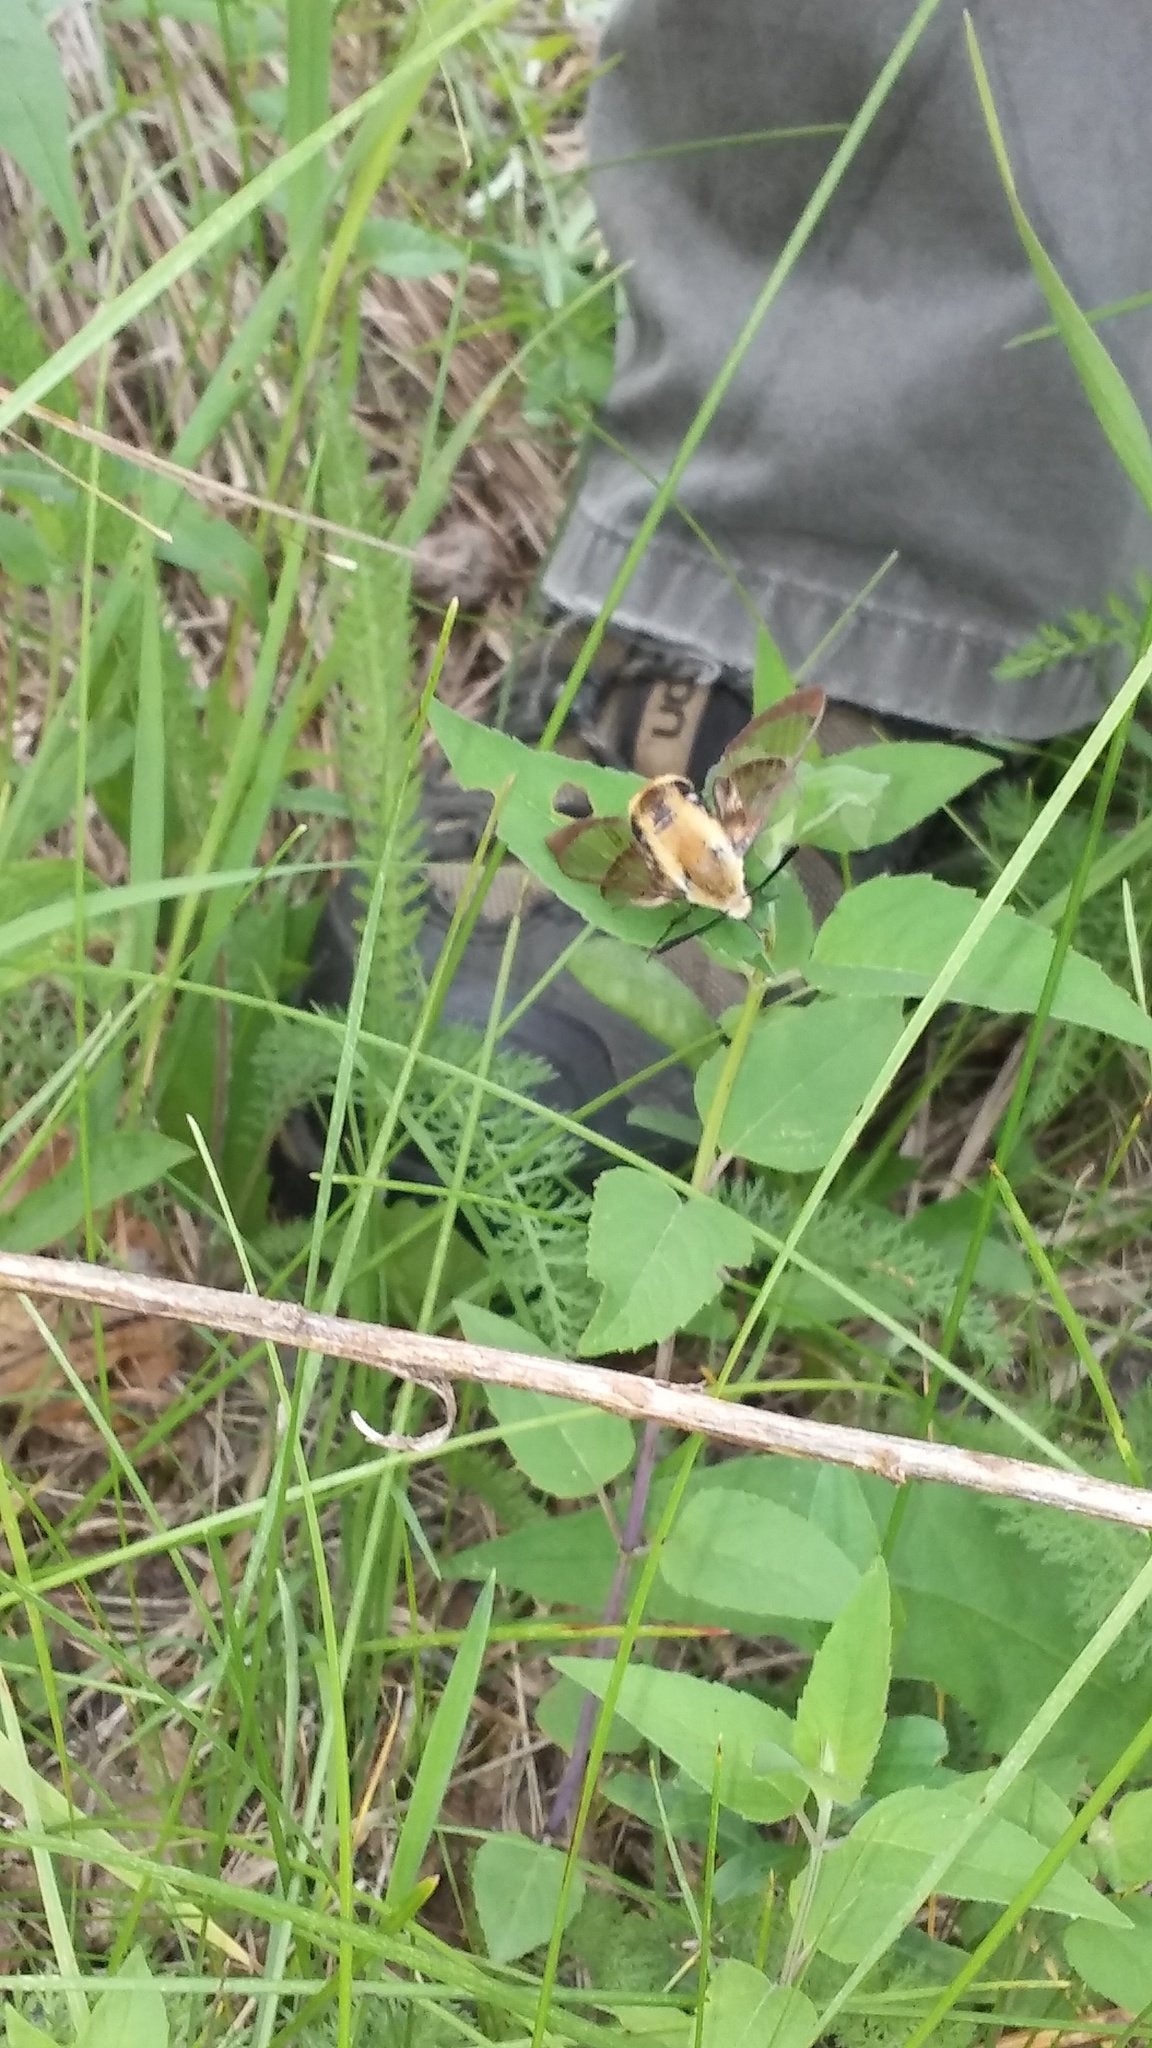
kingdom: Animalia
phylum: Arthropoda
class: Insecta
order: Lepidoptera
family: Sphingidae
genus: Hemaris
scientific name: Hemaris diffinis
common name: Bumblebee moth
